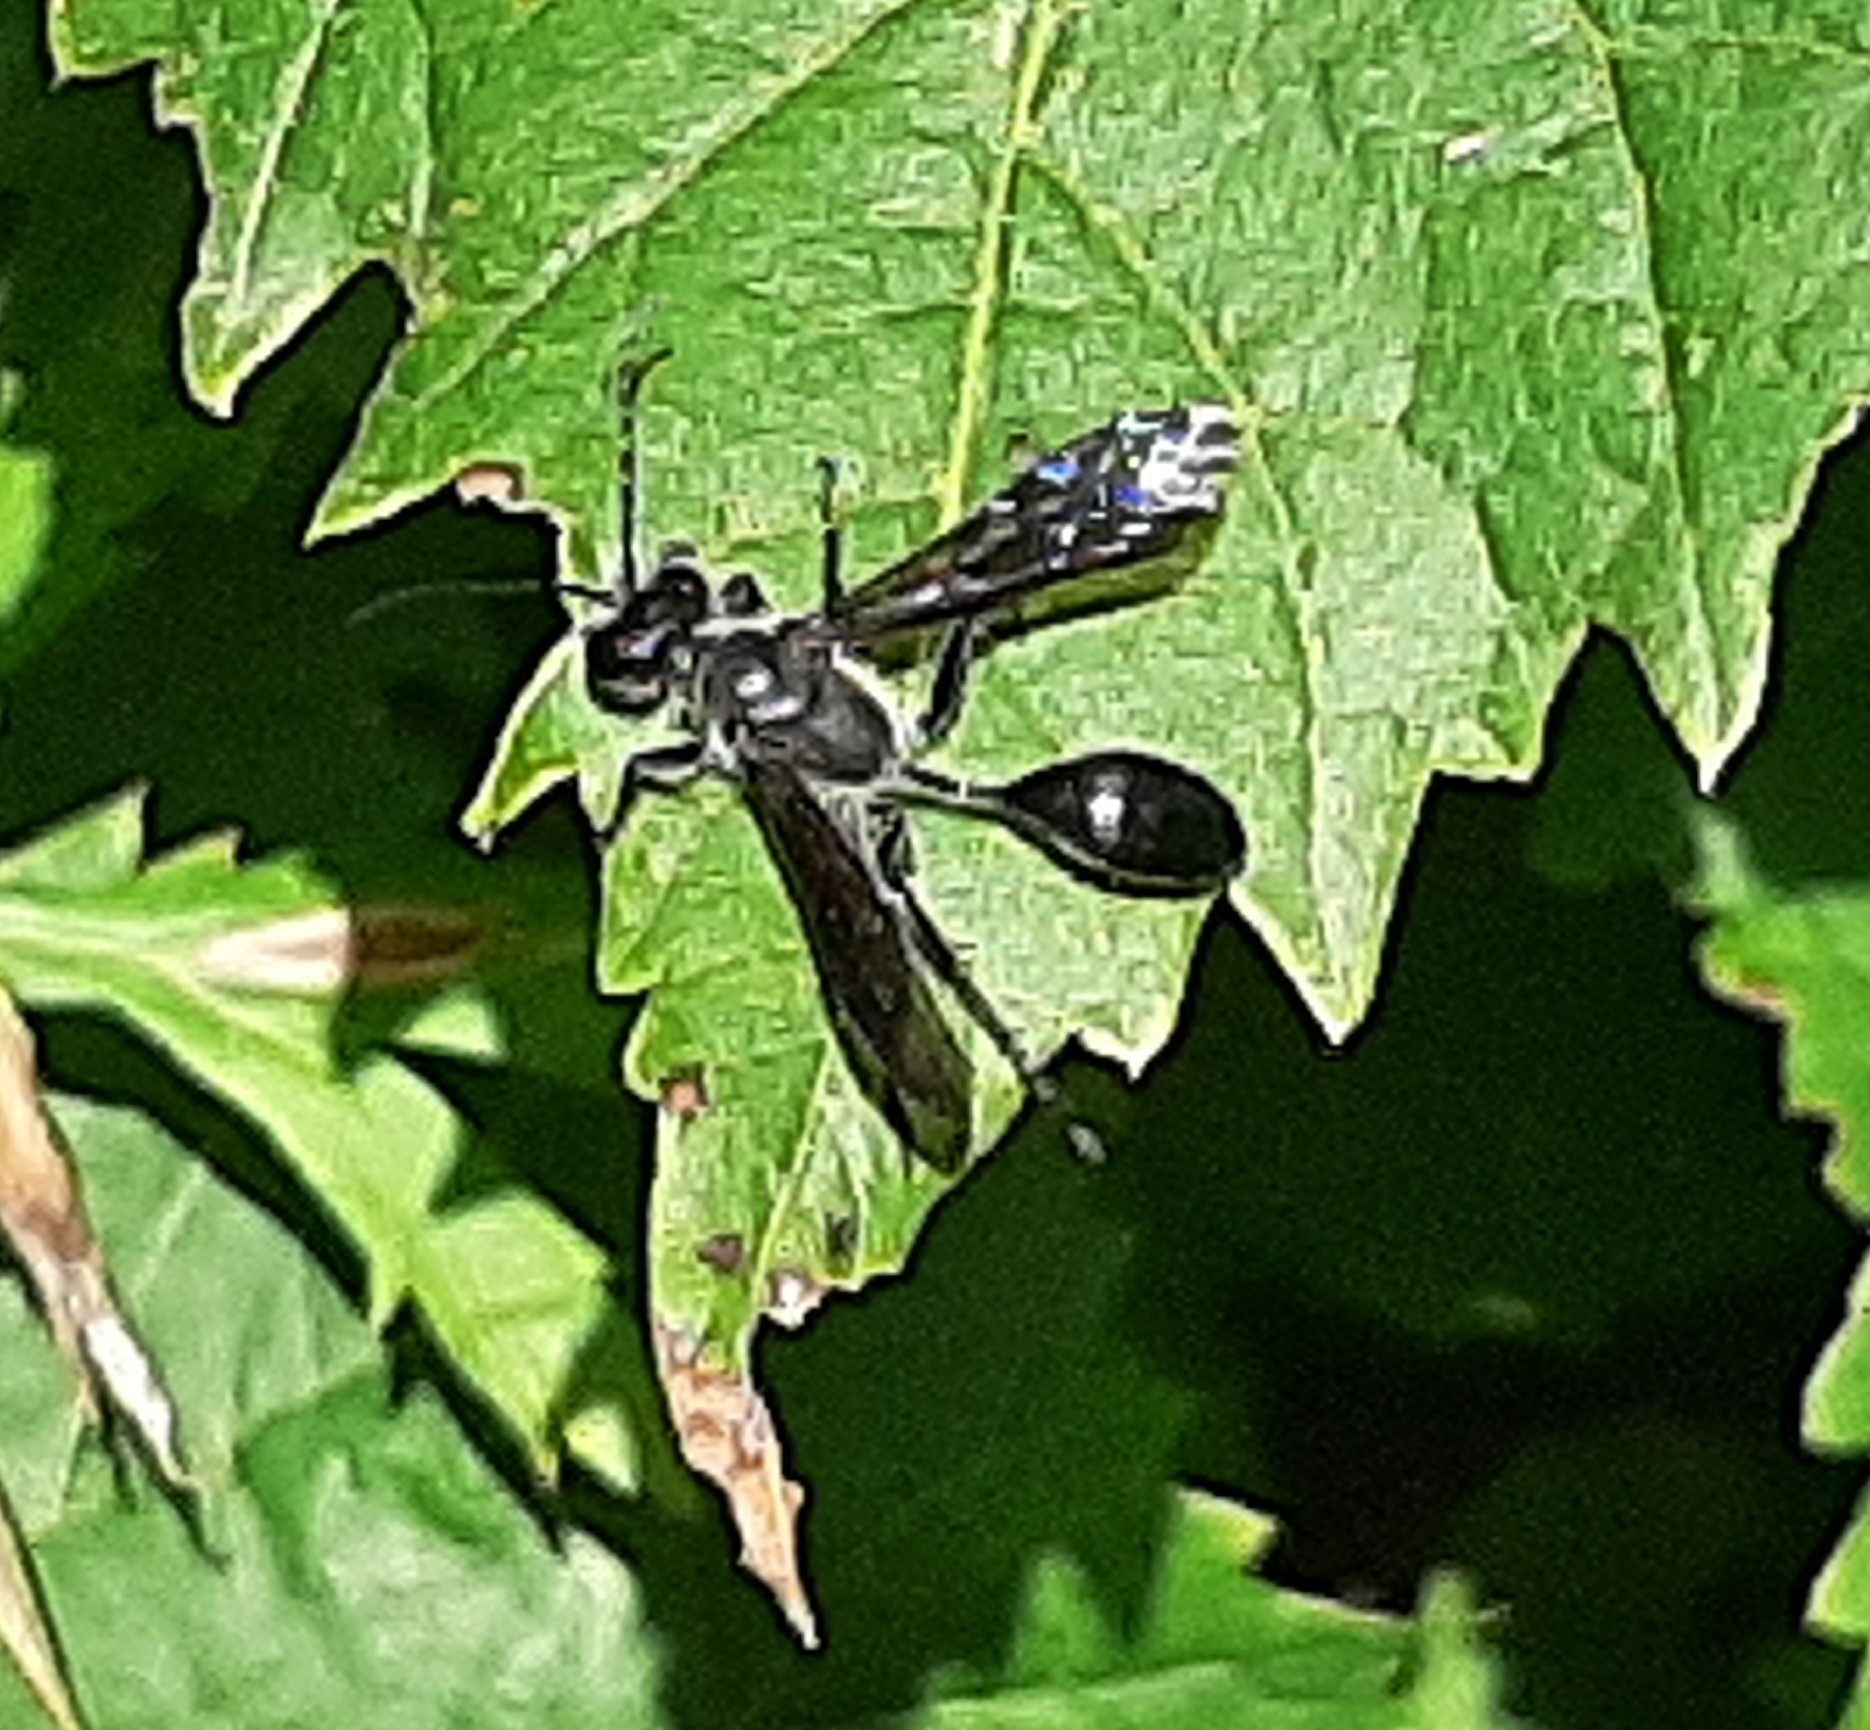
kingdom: Animalia
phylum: Arthropoda
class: Insecta
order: Hymenoptera
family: Sphecidae
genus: Isodontia
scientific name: Isodontia mexicana
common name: Mud dauber
